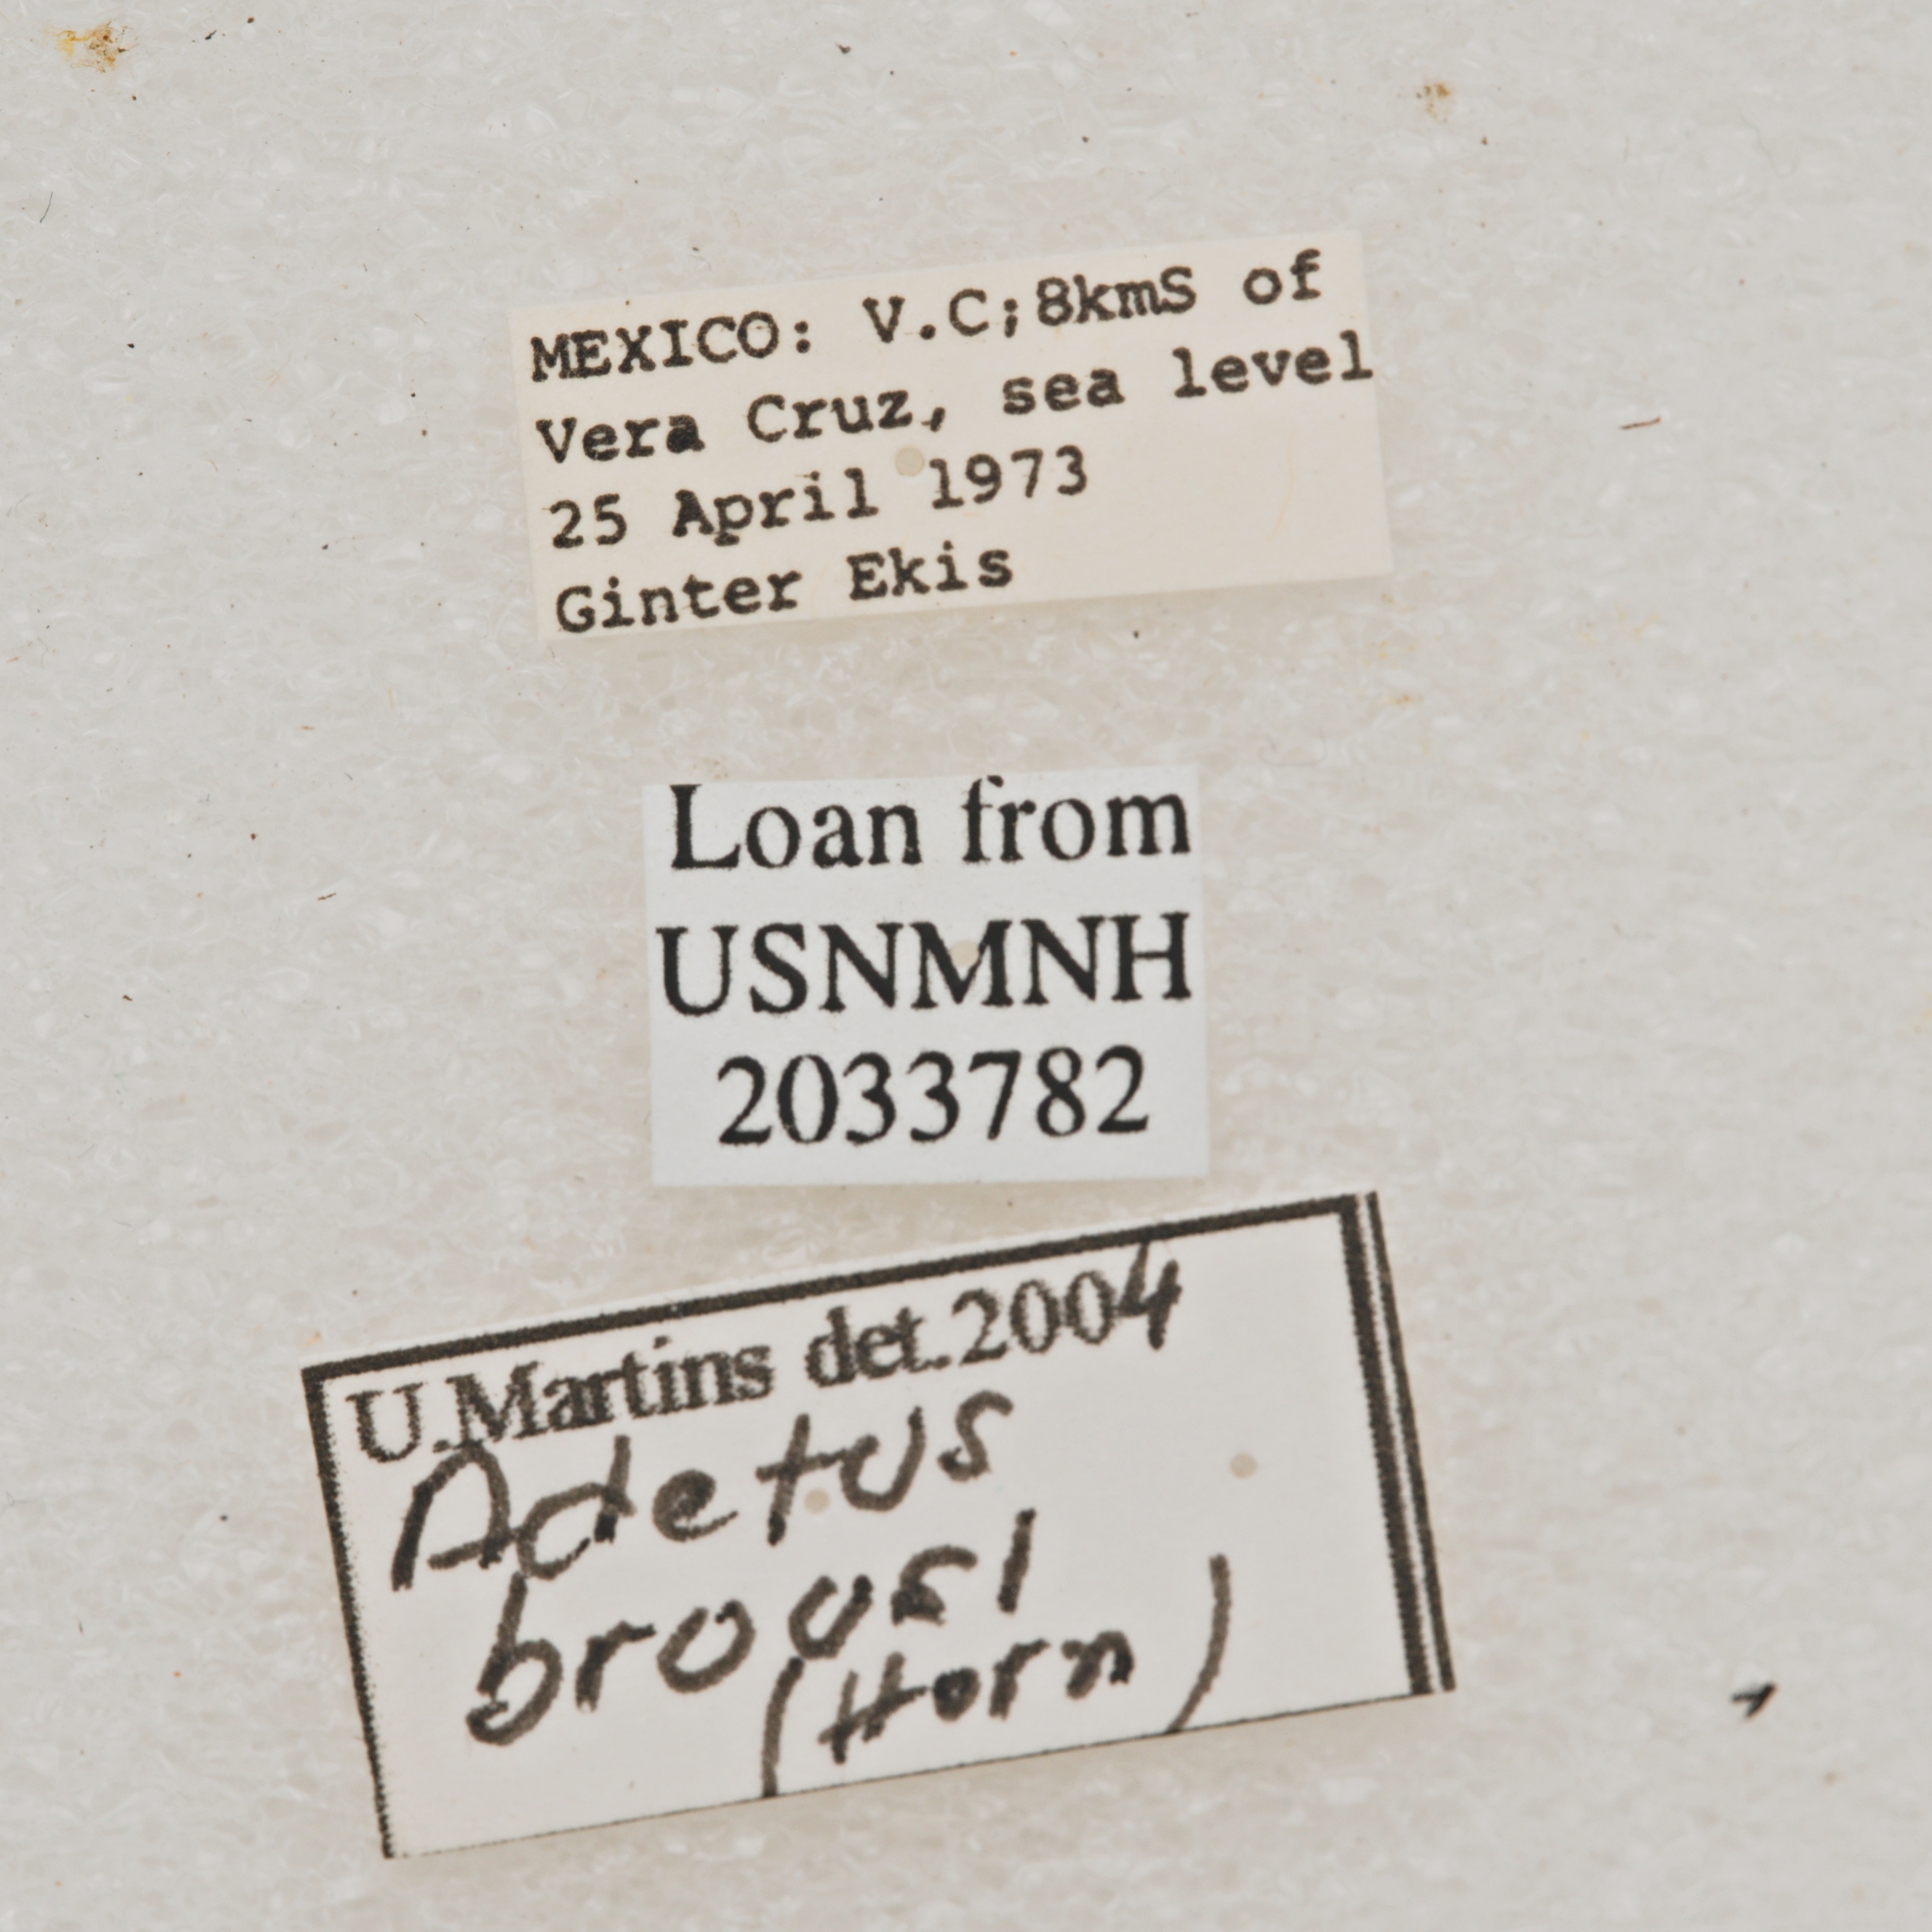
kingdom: Animalia
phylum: Arthropoda
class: Insecta
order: Coleoptera
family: Cerambycidae
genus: Adetus
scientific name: Adetus brousii
